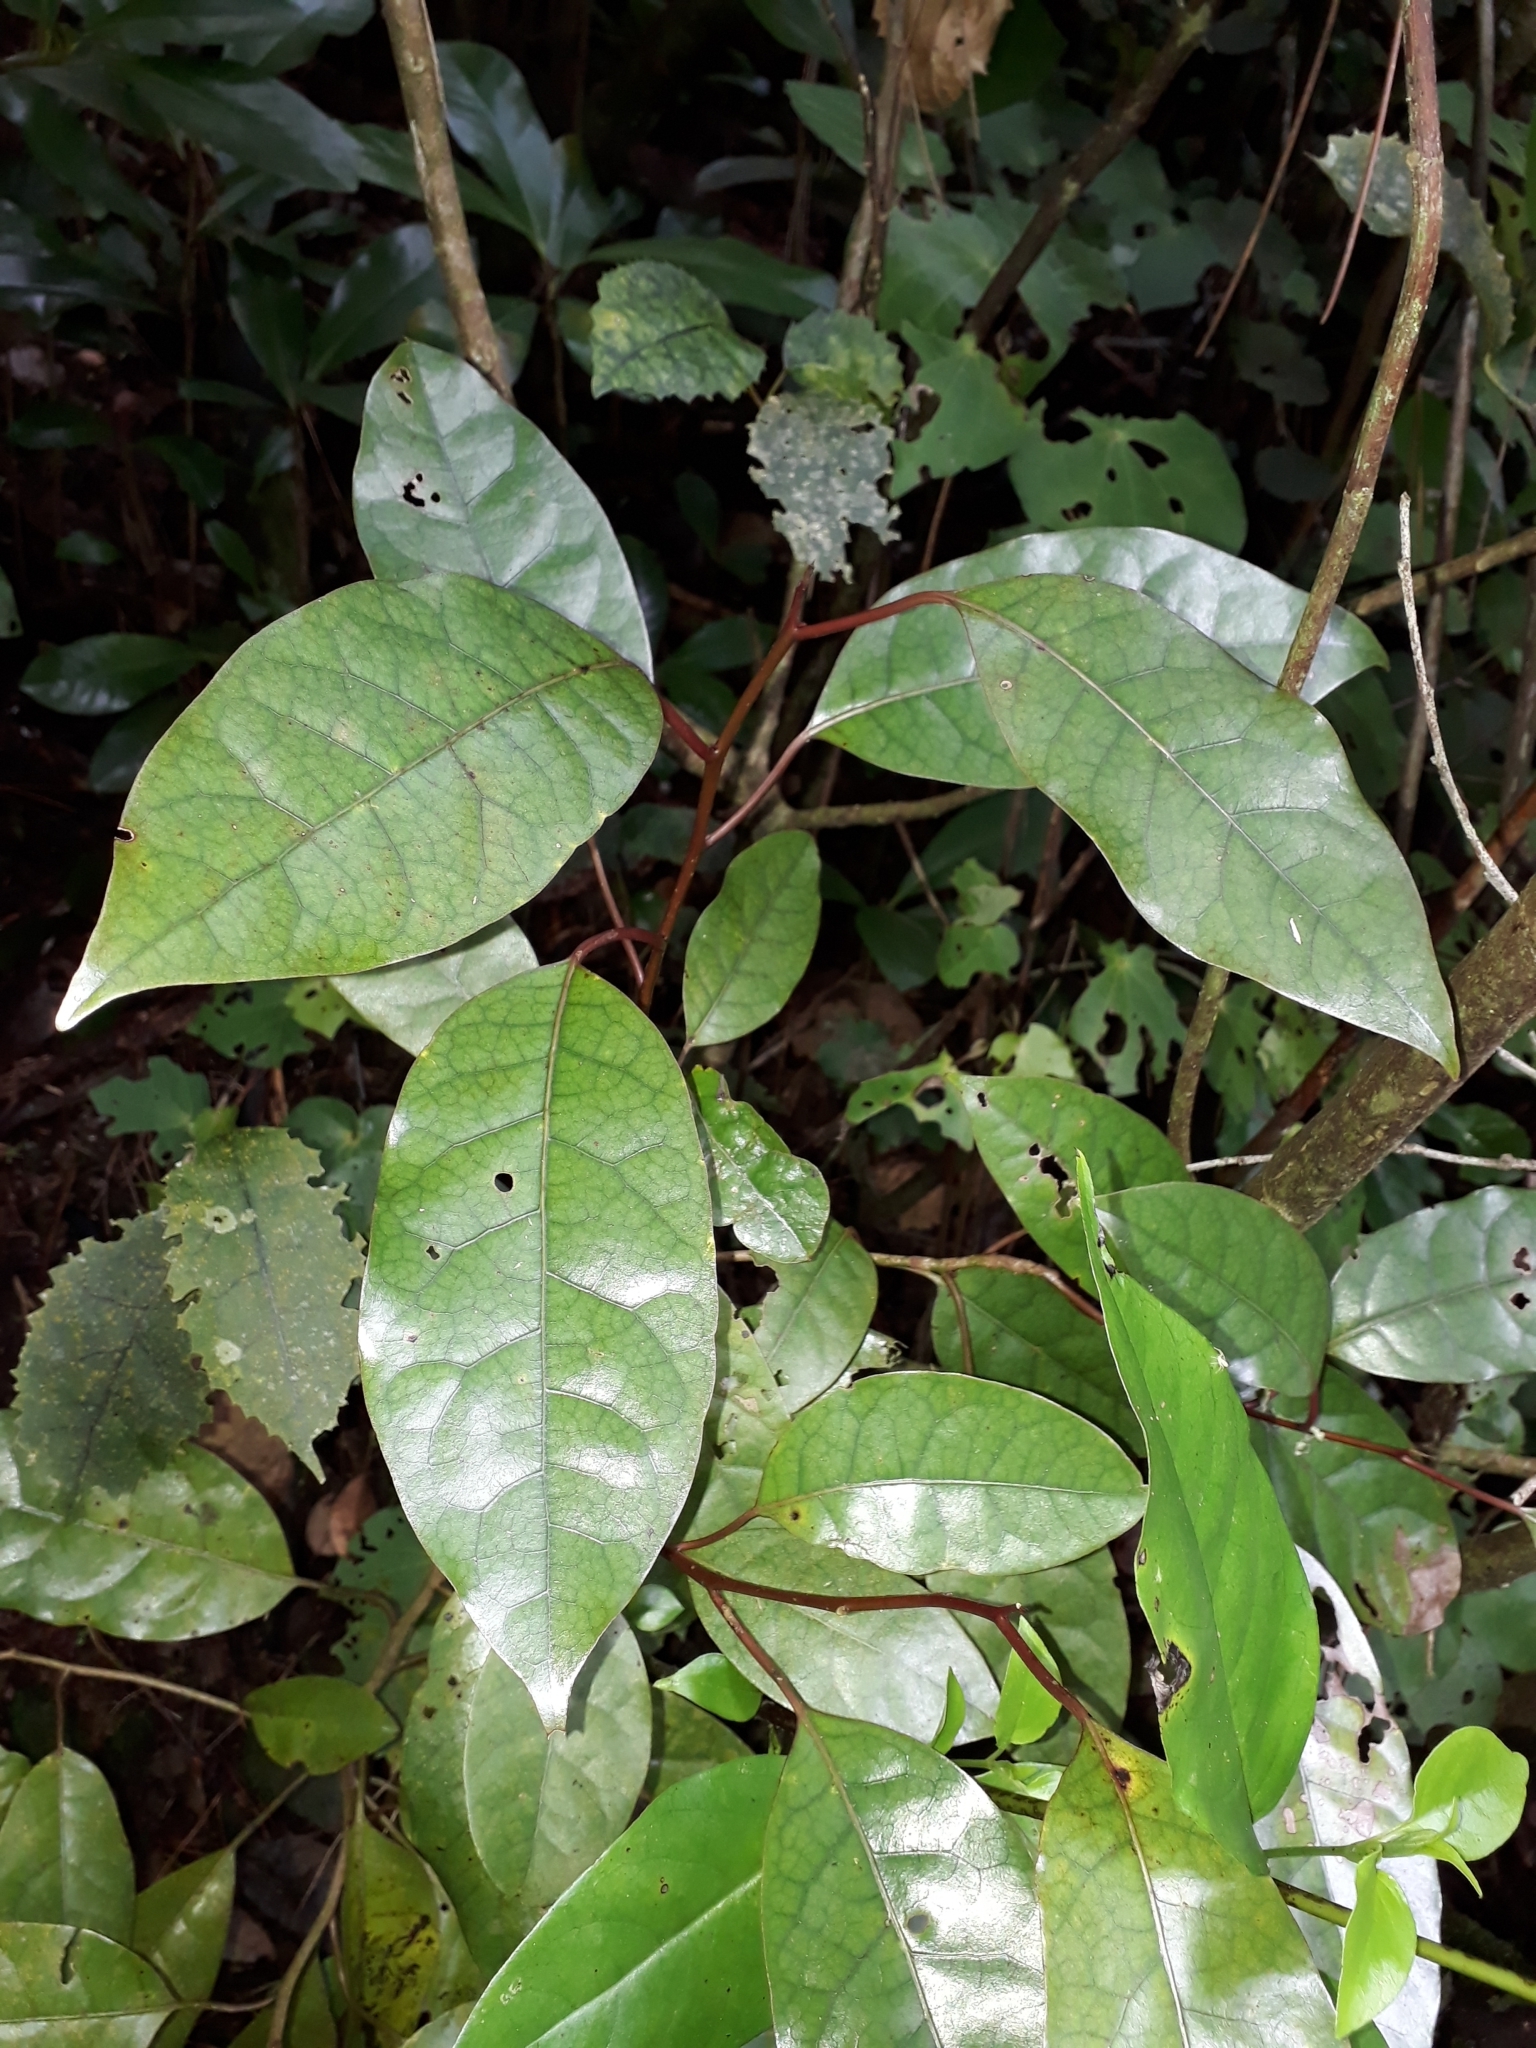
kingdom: Plantae
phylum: Tracheophyta
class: Magnoliopsida
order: Laurales
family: Lauraceae
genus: Litsea
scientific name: Litsea calicaris
